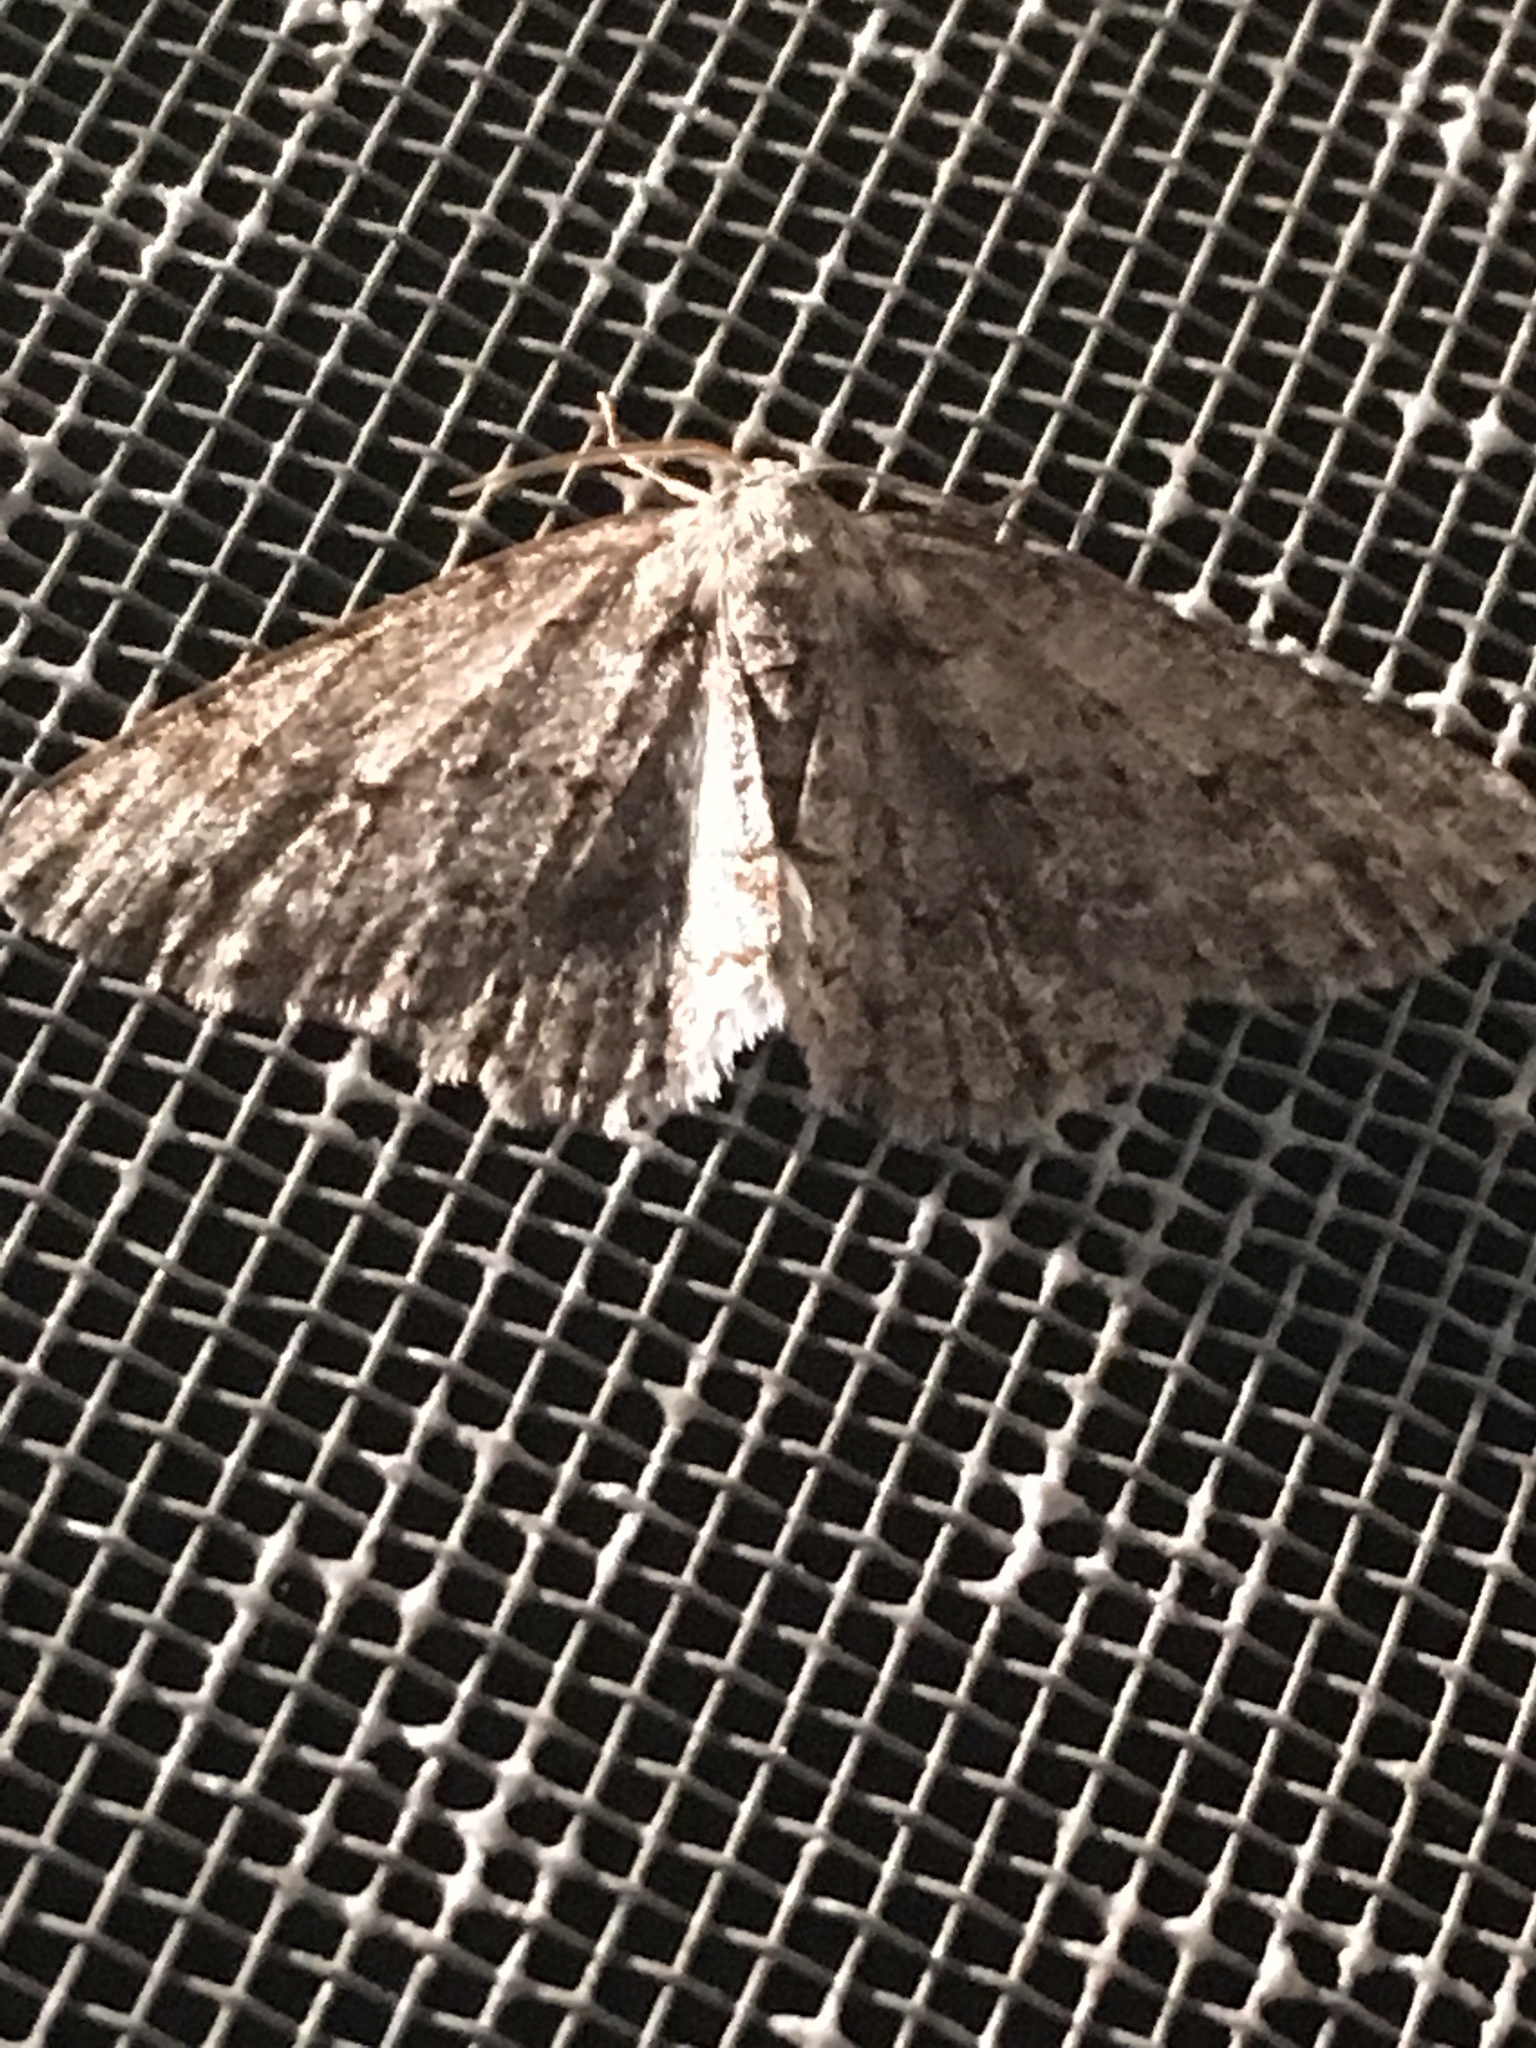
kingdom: Animalia
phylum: Arthropoda
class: Insecta
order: Lepidoptera
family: Geometridae
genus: Ectropis
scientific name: Ectropis crepuscularia
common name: Engrailed
